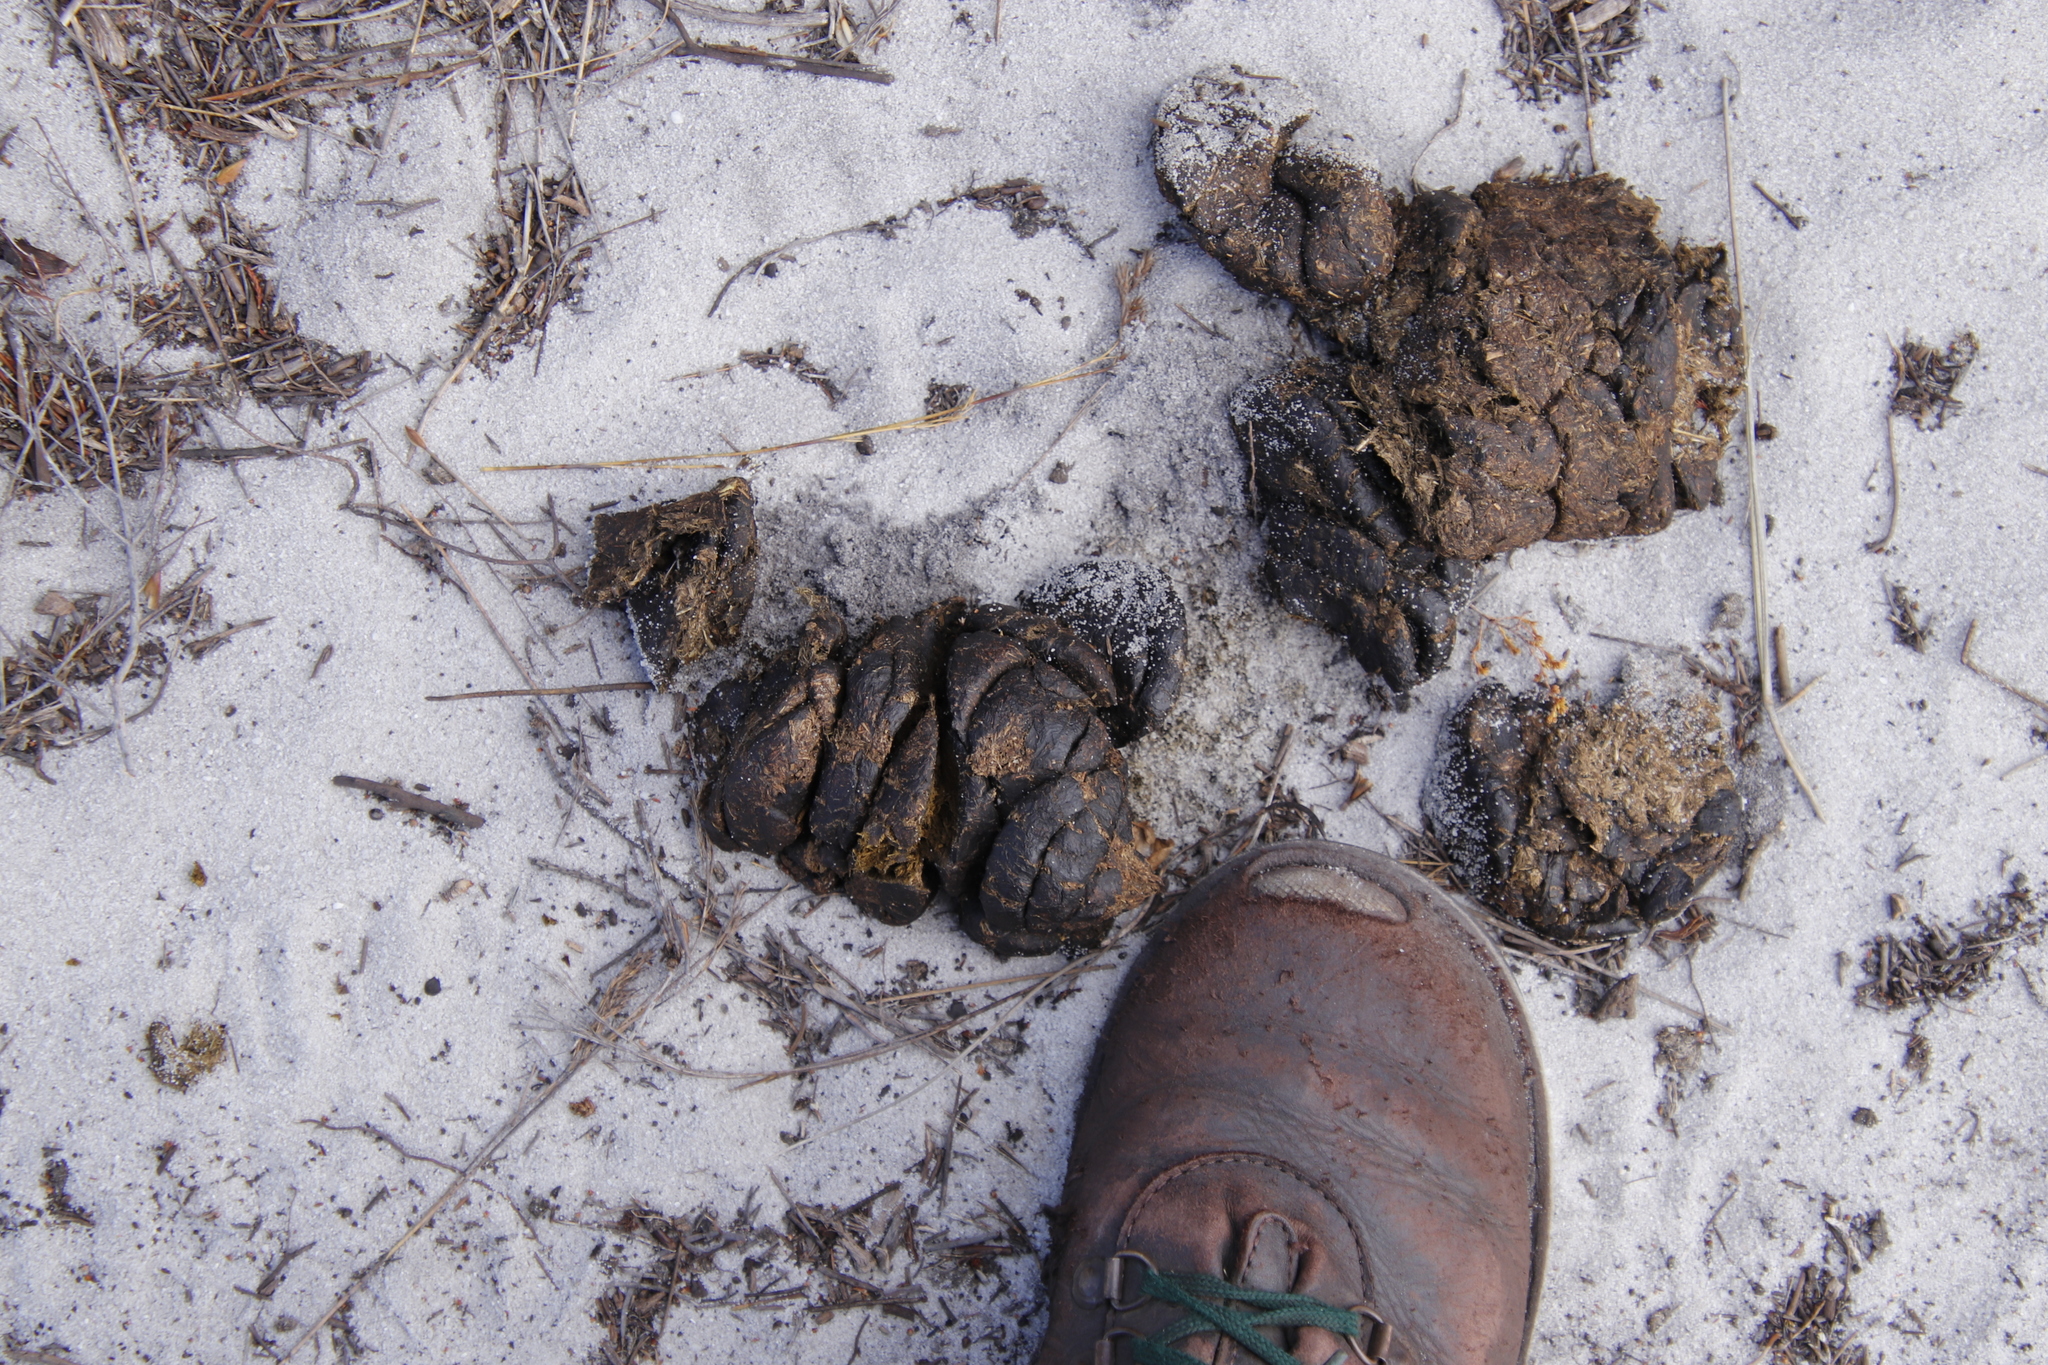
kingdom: Animalia
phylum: Chordata
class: Mammalia
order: Artiodactyla
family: Bovidae
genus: Taurotragus
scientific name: Taurotragus oryx
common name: Common eland
